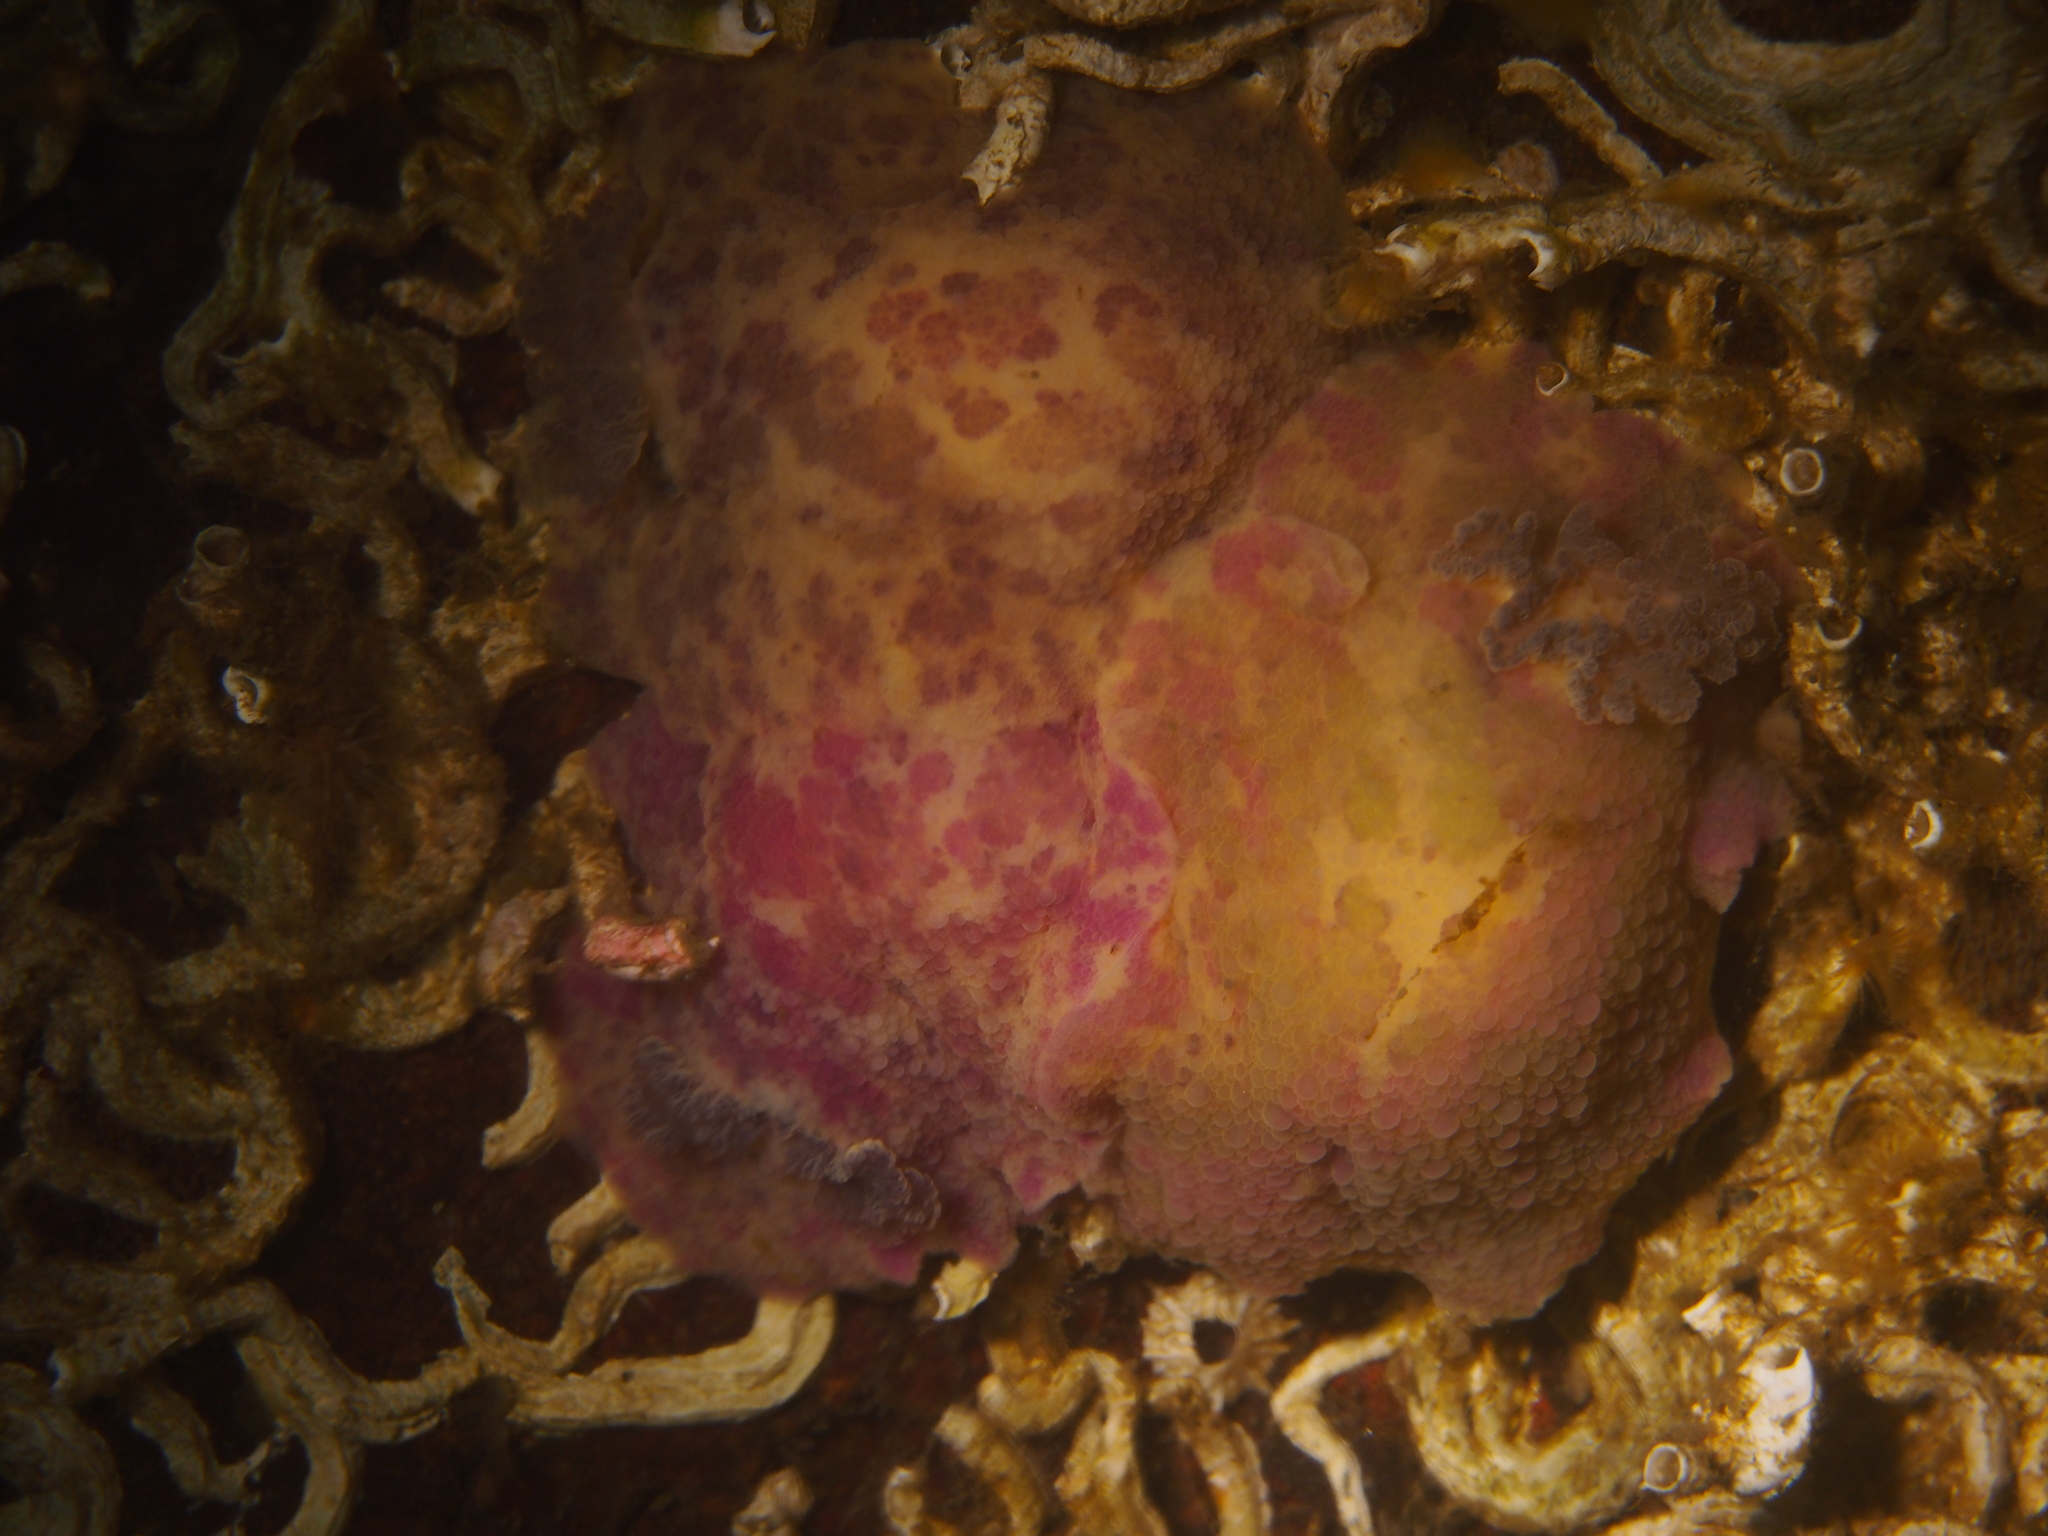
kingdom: Animalia
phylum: Mollusca
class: Gastropoda
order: Nudibranchia
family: Dorididae
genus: Doris
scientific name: Doris pseudoargus
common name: Sea lemon
